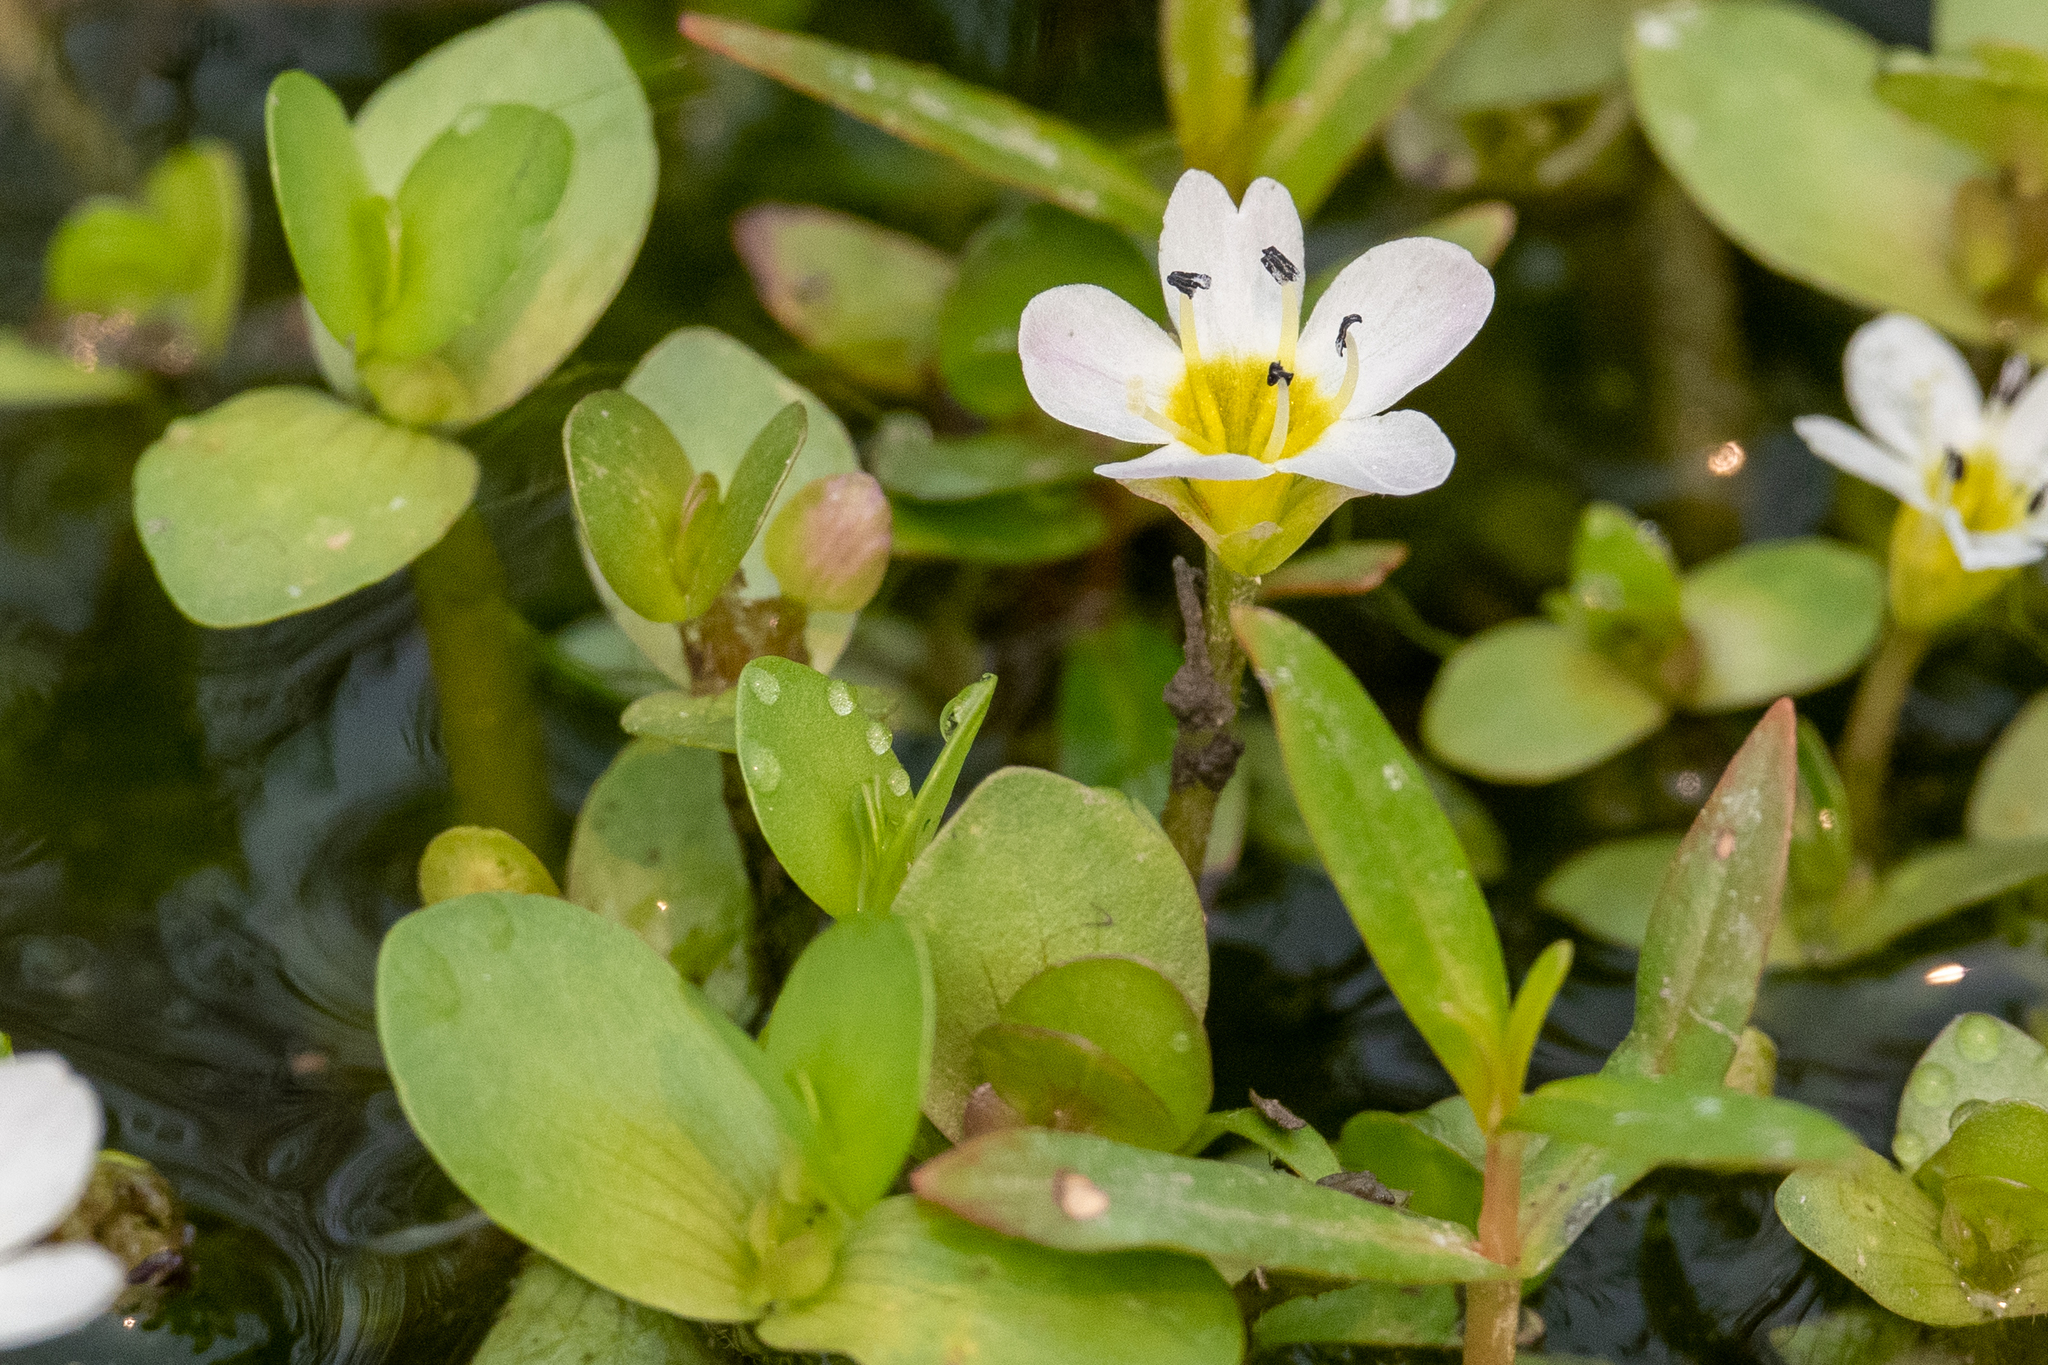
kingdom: Plantae
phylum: Tracheophyta
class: Magnoliopsida
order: Lamiales
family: Plantaginaceae
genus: Bacopa
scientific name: Bacopa eisenii
